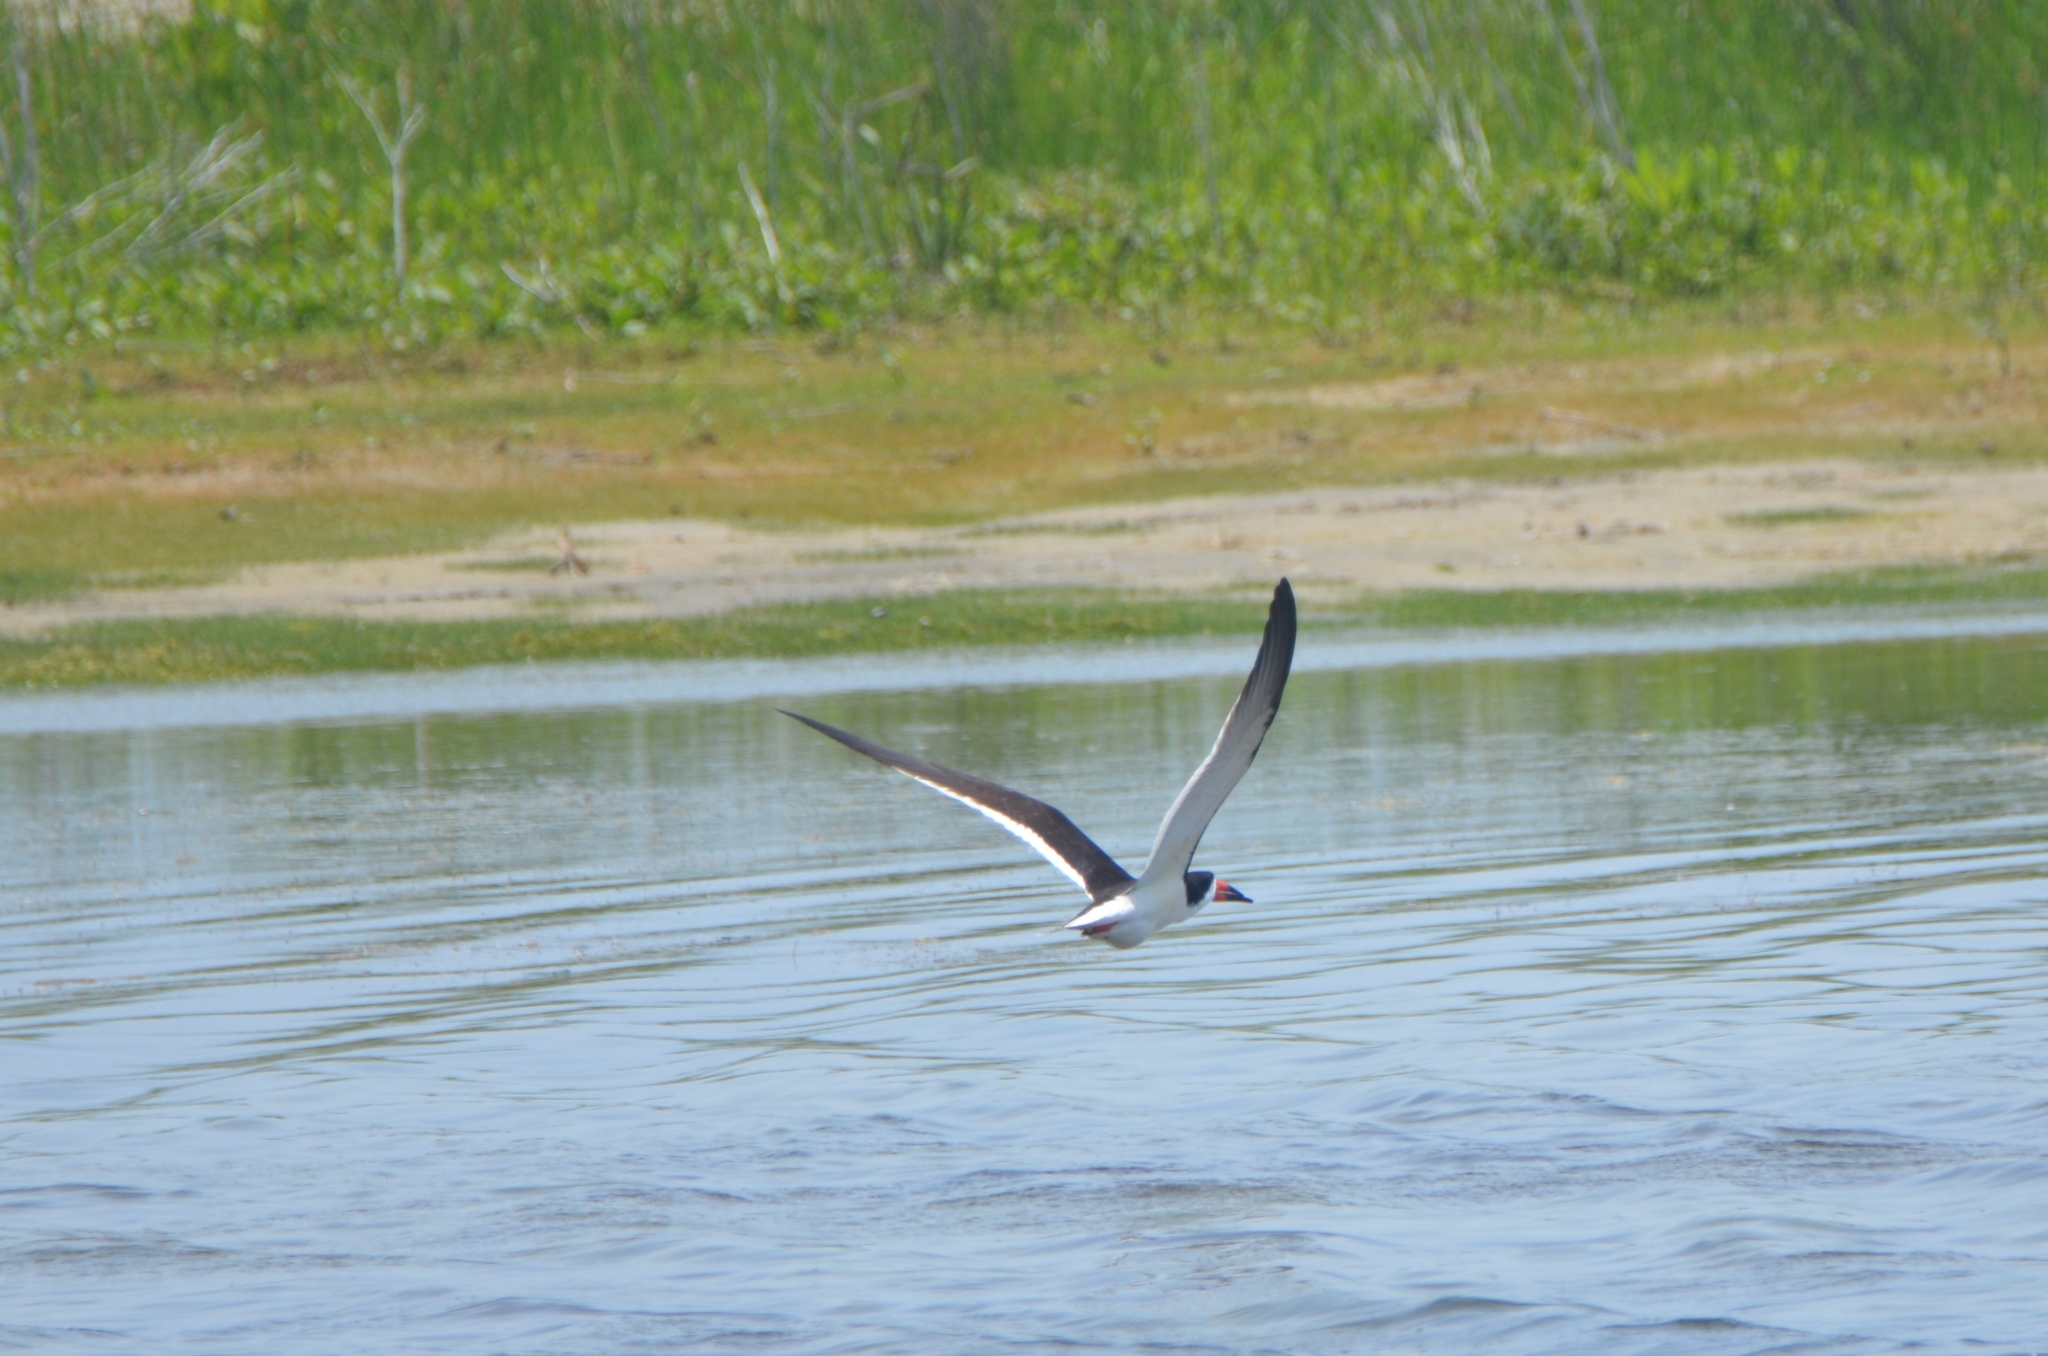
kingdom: Animalia
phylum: Chordata
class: Aves
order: Charadriiformes
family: Laridae
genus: Rynchops
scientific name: Rynchops niger
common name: Black skimmer
